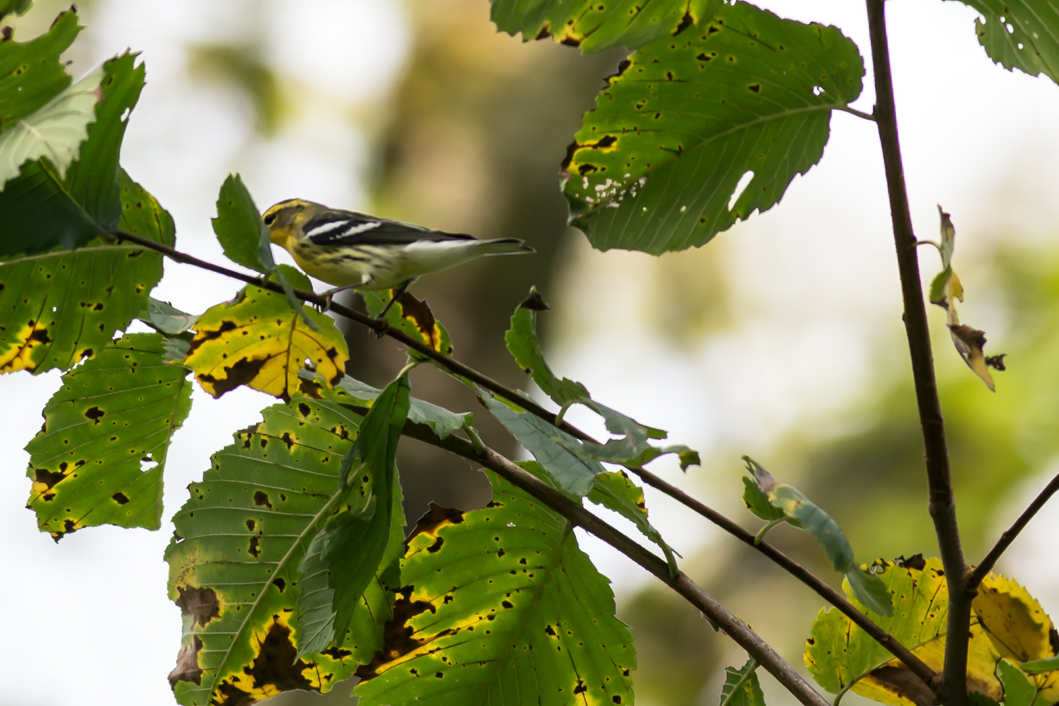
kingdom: Animalia
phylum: Chordata
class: Aves
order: Passeriformes
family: Parulidae
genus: Setophaga
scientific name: Setophaga fusca
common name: Blackburnian warbler
